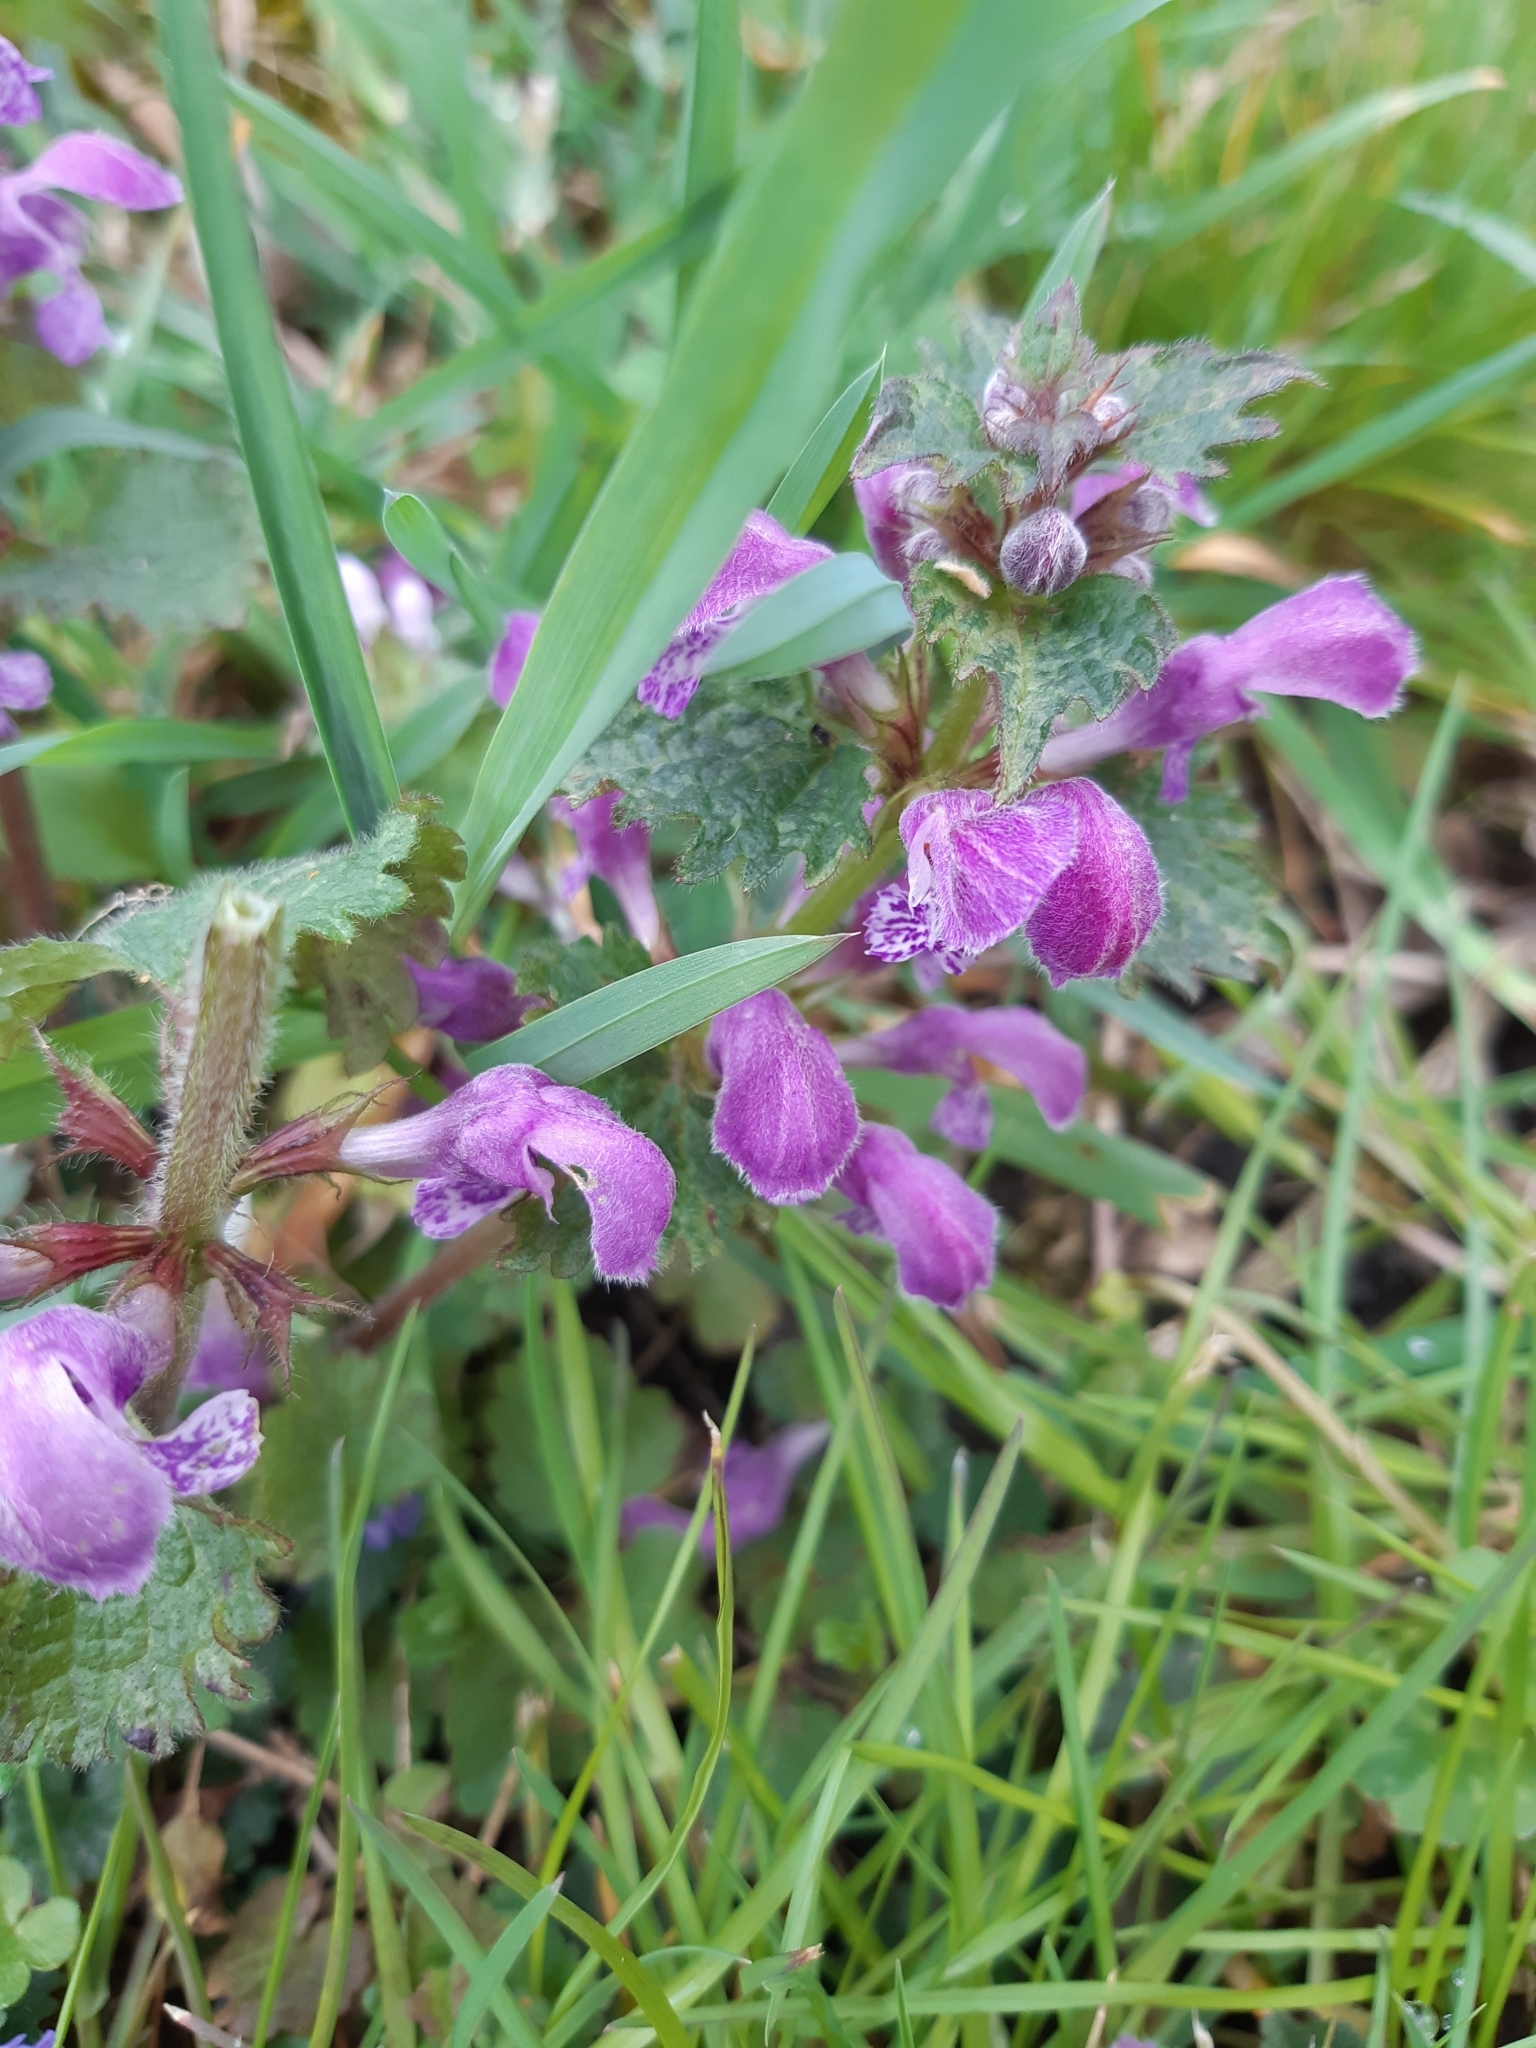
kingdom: Plantae
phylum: Tracheophyta
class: Magnoliopsida
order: Lamiales
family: Lamiaceae
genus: Lamium
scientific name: Lamium maculatum
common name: Spotted dead-nettle
